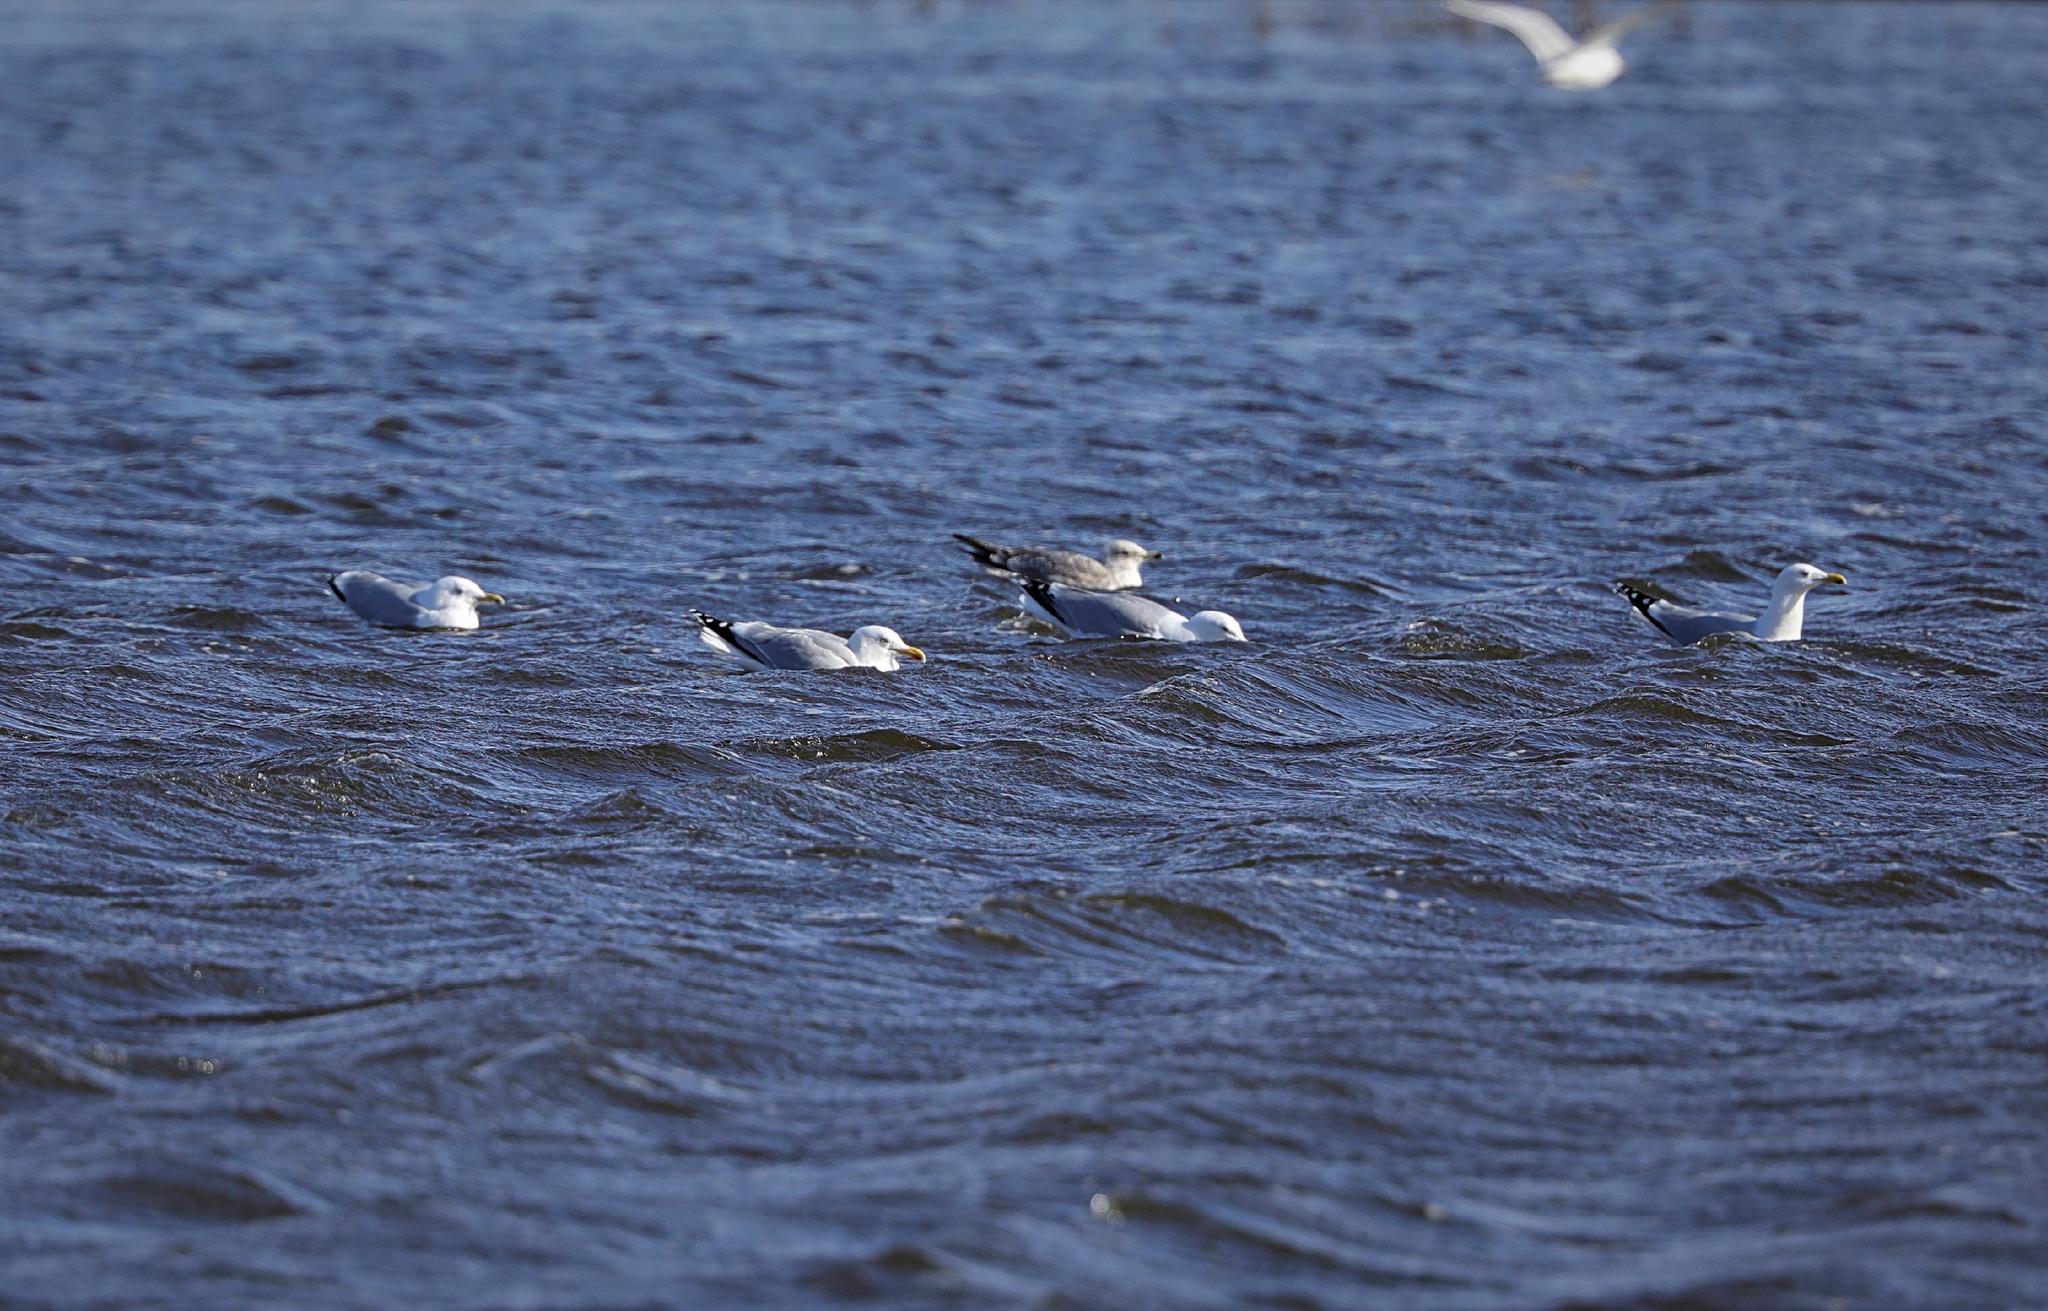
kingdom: Animalia
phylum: Chordata
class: Aves
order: Charadriiformes
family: Laridae
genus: Larus
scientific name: Larus argentatus
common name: Herring gull
